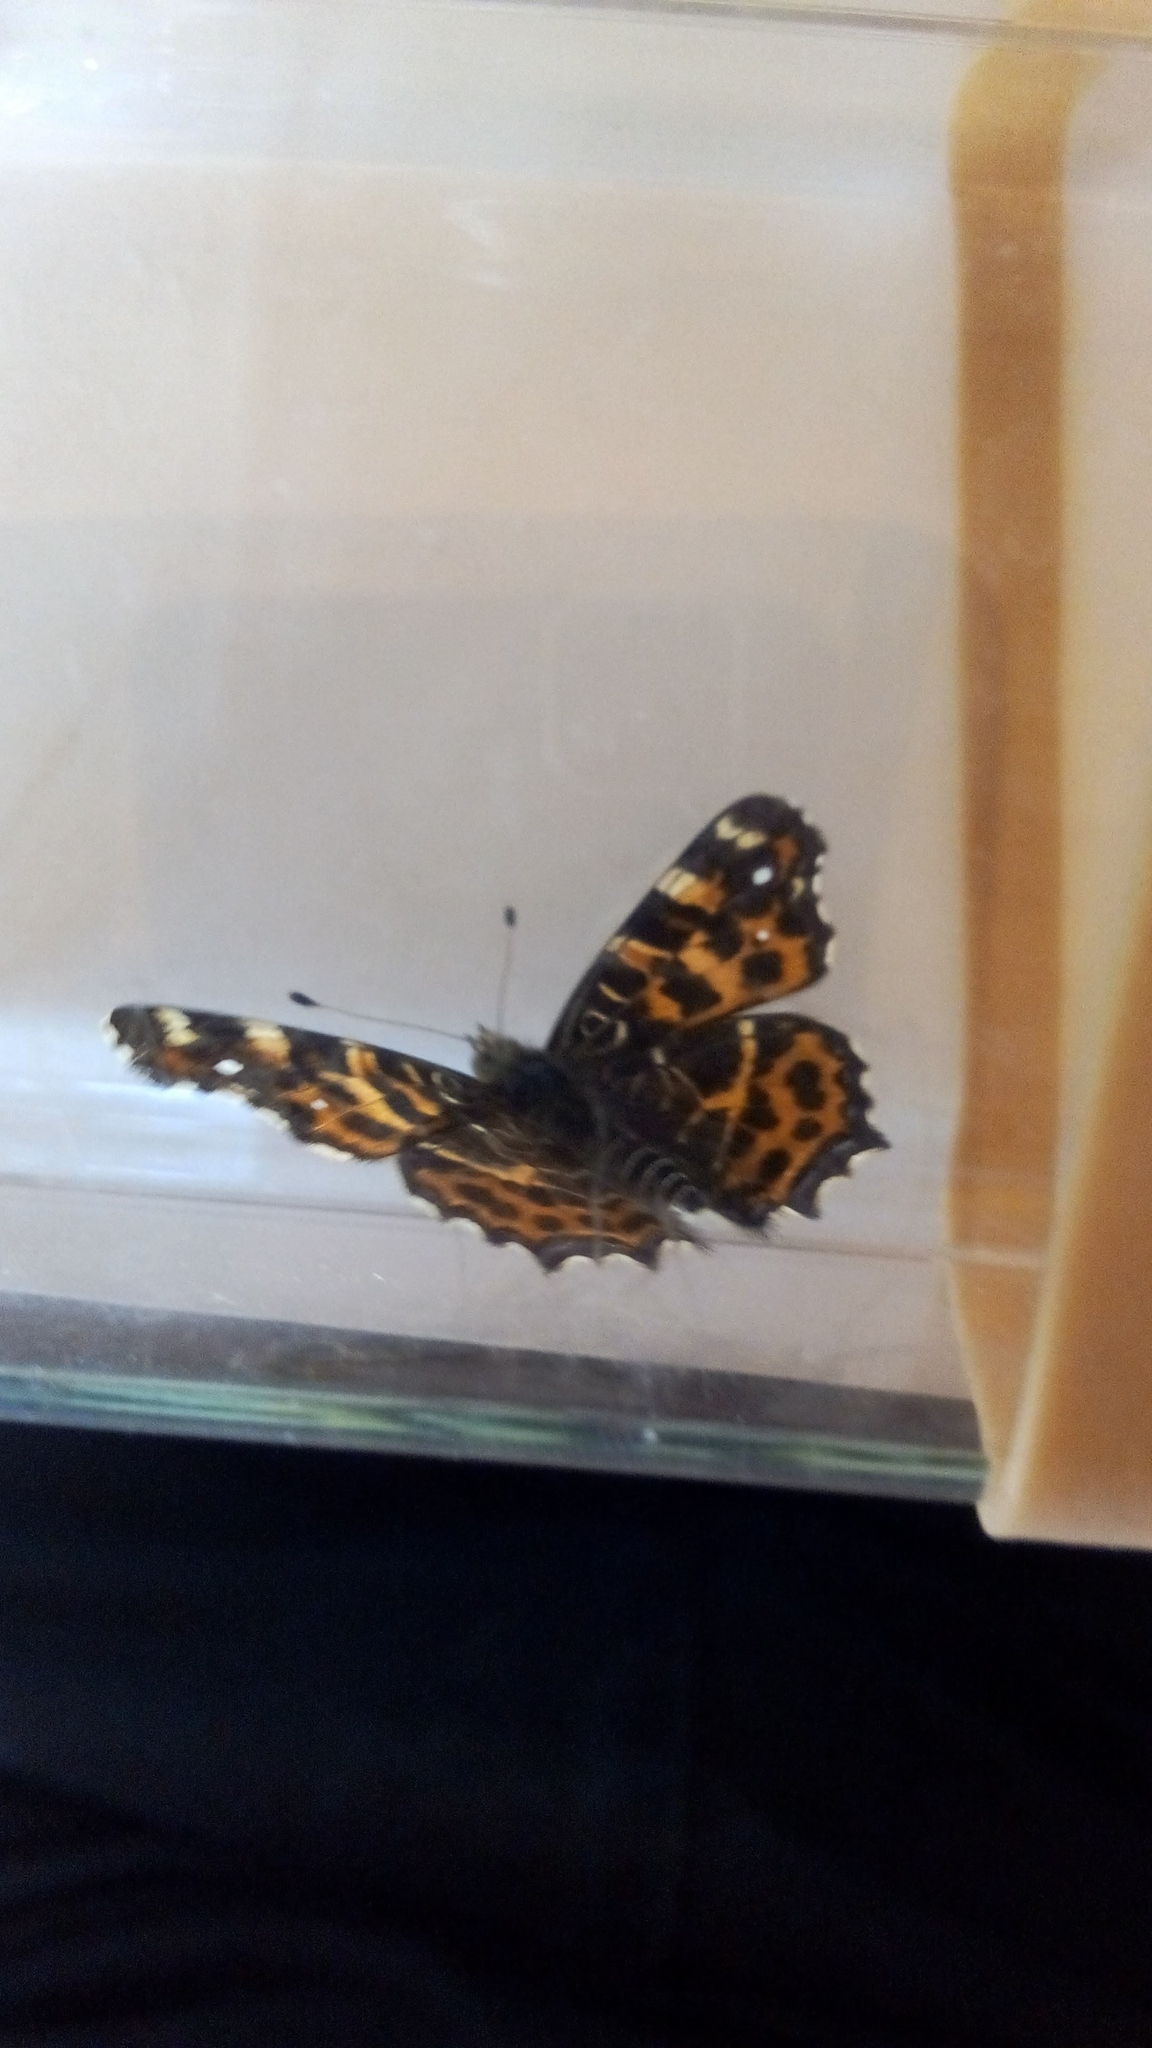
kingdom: Animalia
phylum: Arthropoda
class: Insecta
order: Lepidoptera
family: Nymphalidae
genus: Araschnia
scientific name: Araschnia levana
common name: Map butterfly
